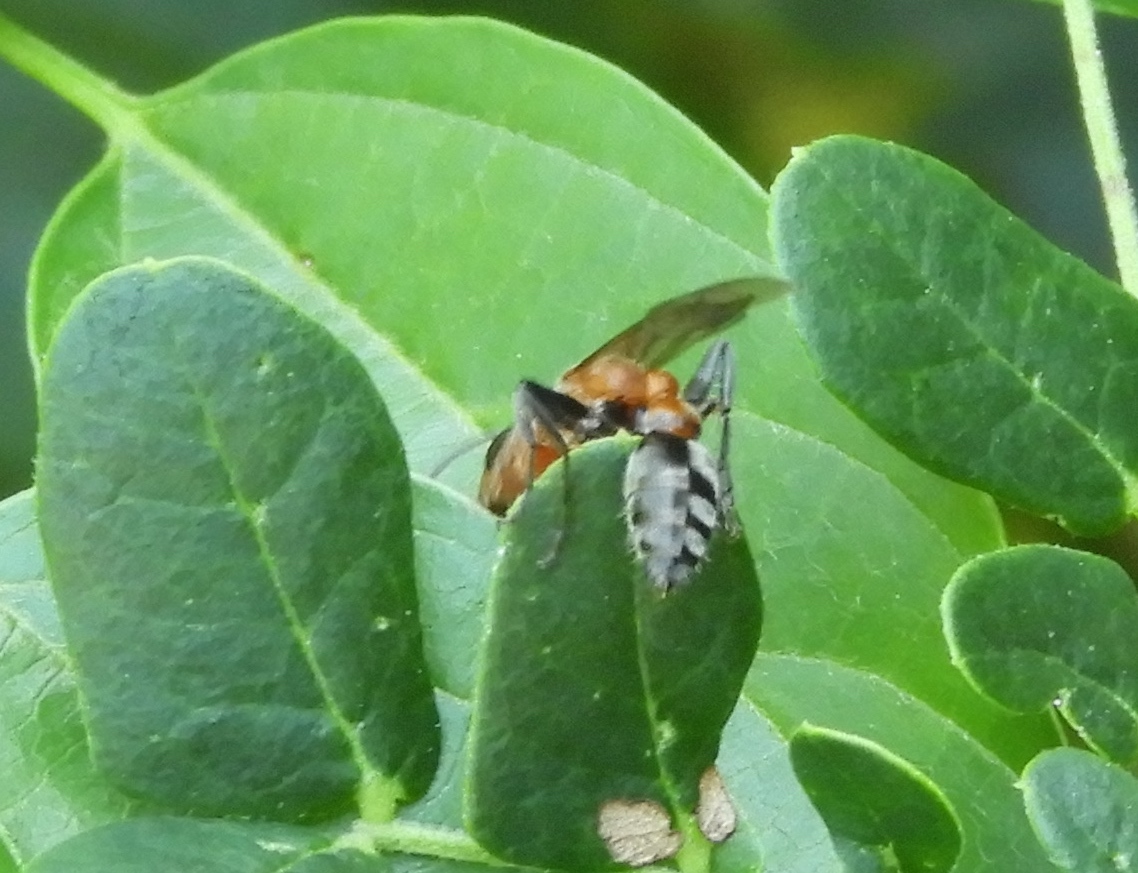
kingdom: Animalia
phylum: Arthropoda
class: Insecta
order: Hymenoptera
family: Formicidae
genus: Pseudomyrmex
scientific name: Pseudomyrmex gracilis
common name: Graceful twig ant
